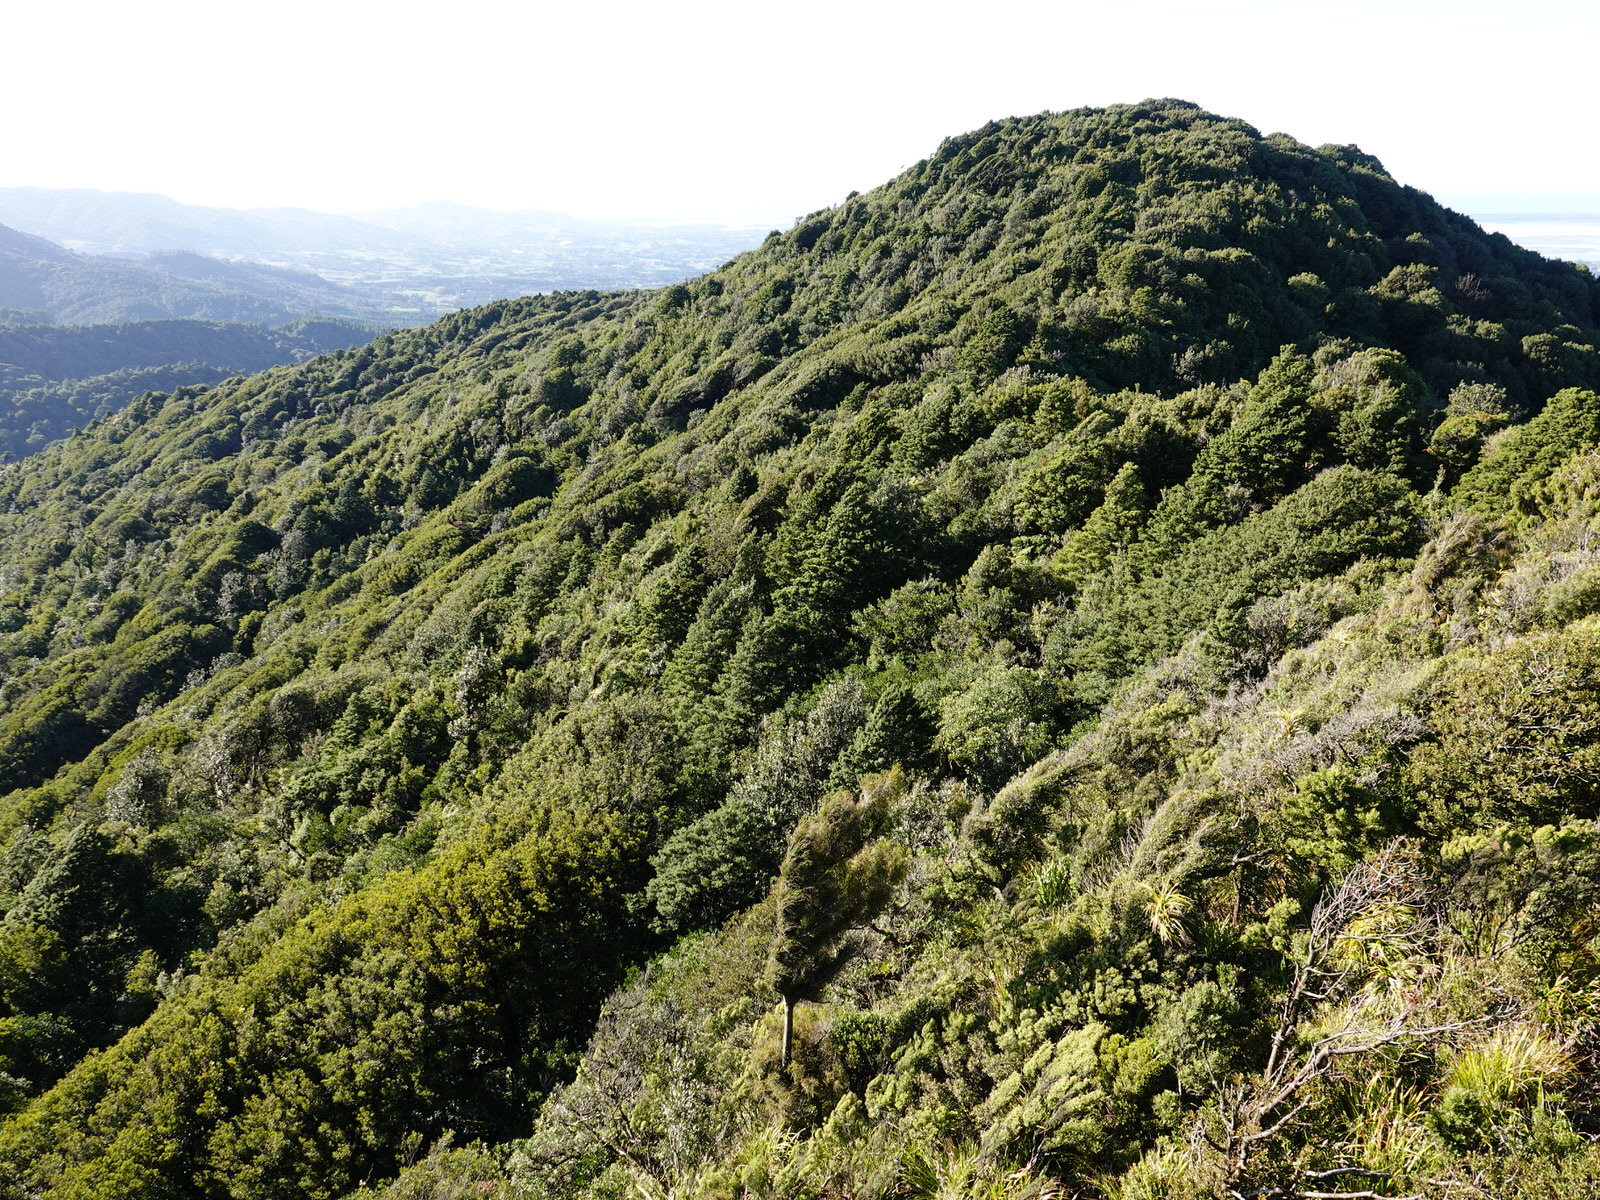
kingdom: Animalia
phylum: Chordata
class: Aves
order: Coraciiformes
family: Alcedinidae
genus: Todiramphus
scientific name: Todiramphus sanctus
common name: Sacred kingfisher
